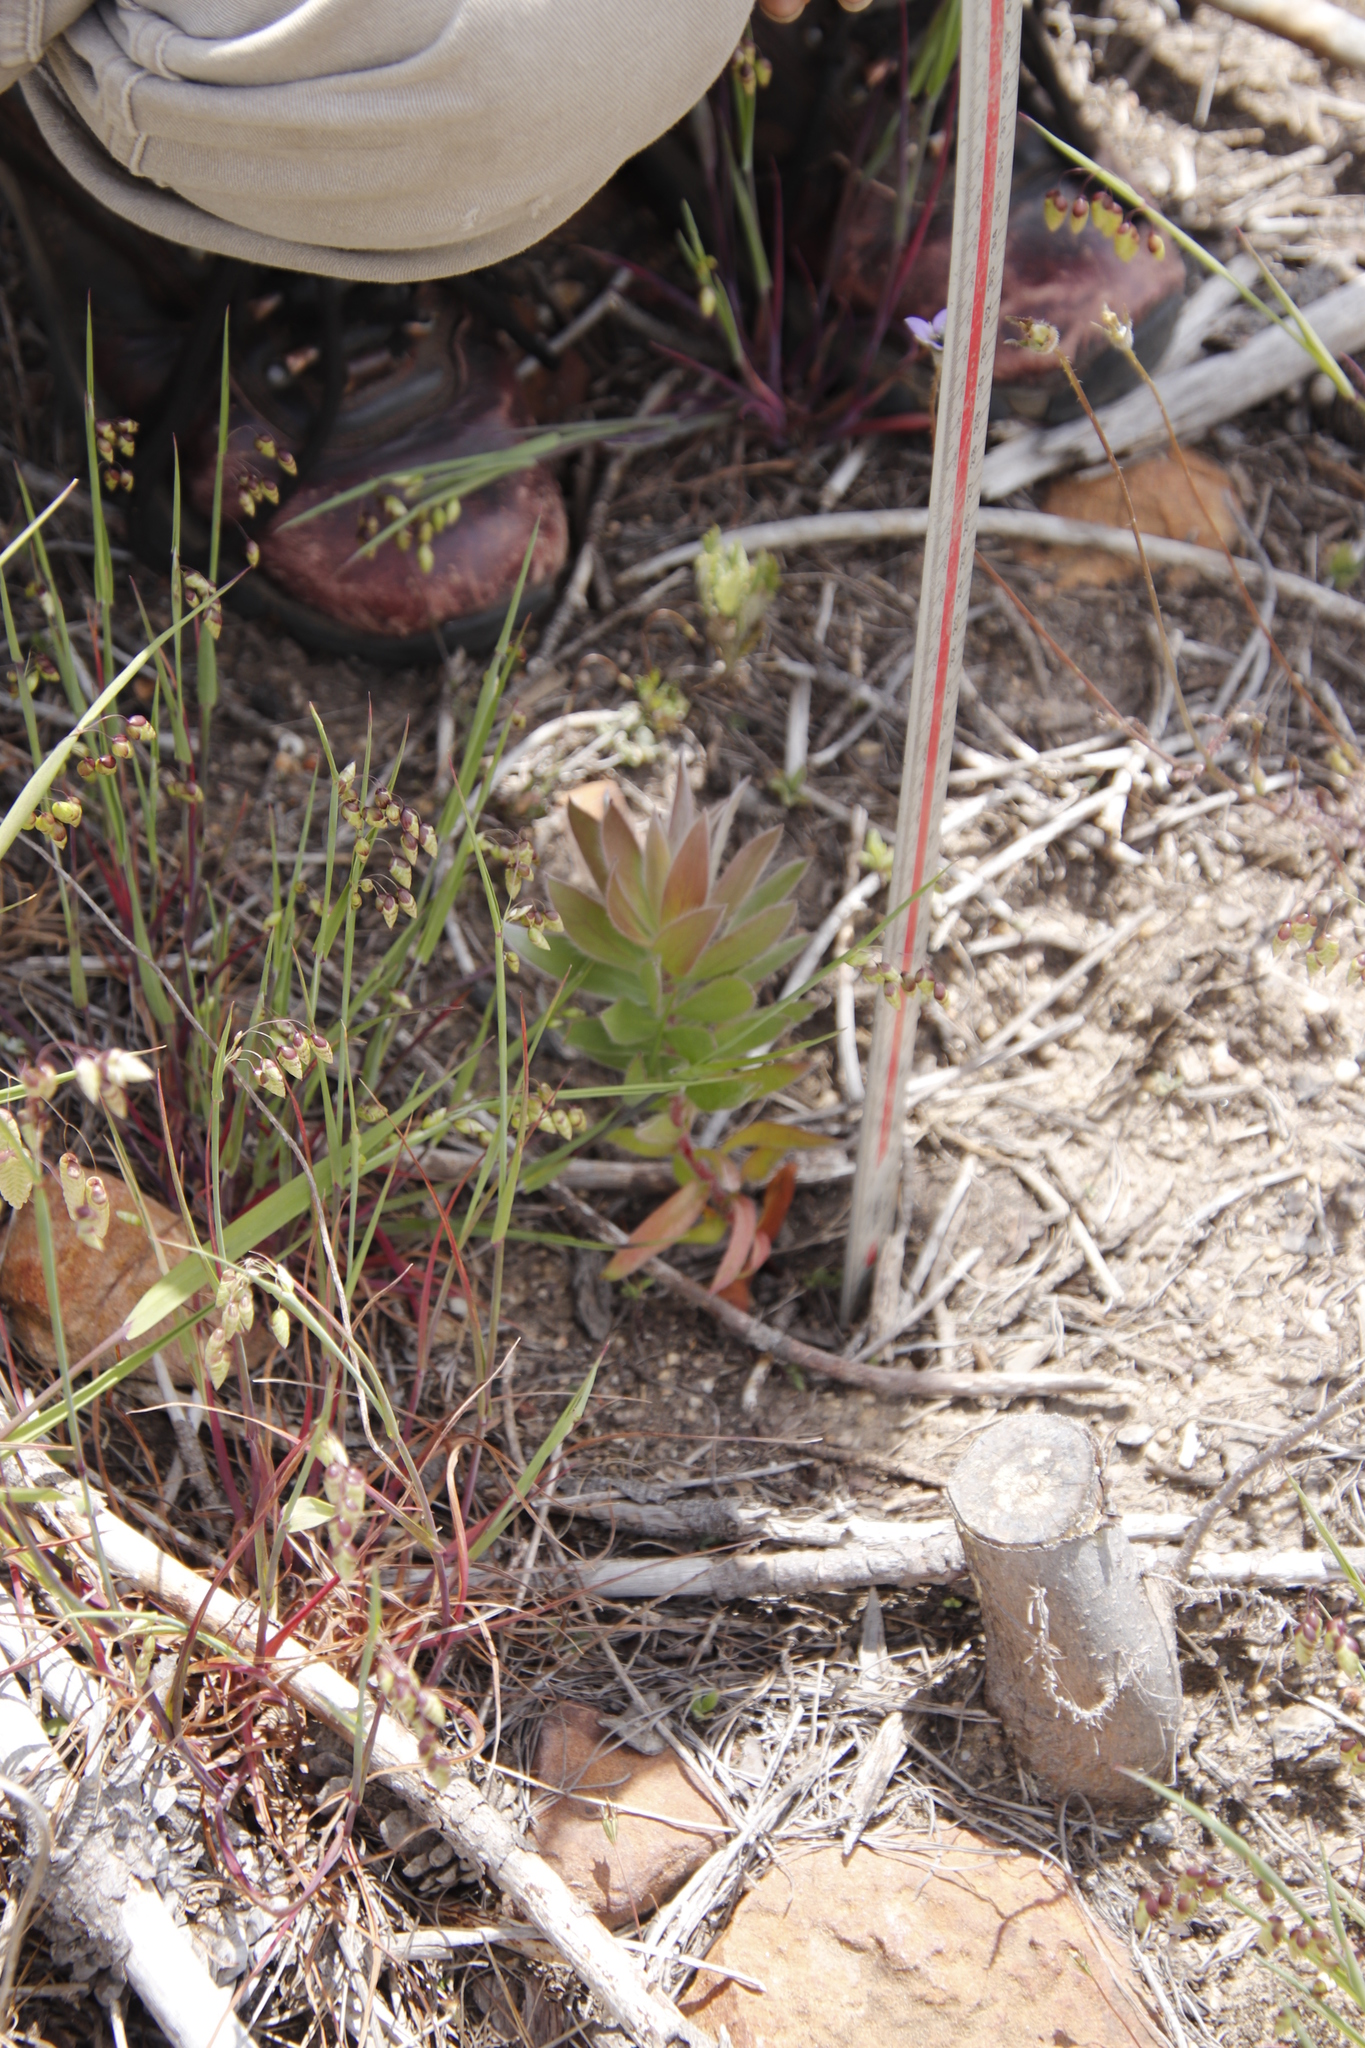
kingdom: Plantae
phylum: Tracheophyta
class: Magnoliopsida
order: Proteales
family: Proteaceae
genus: Leucadendron
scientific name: Leucadendron argenteum
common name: Cape silver tree
